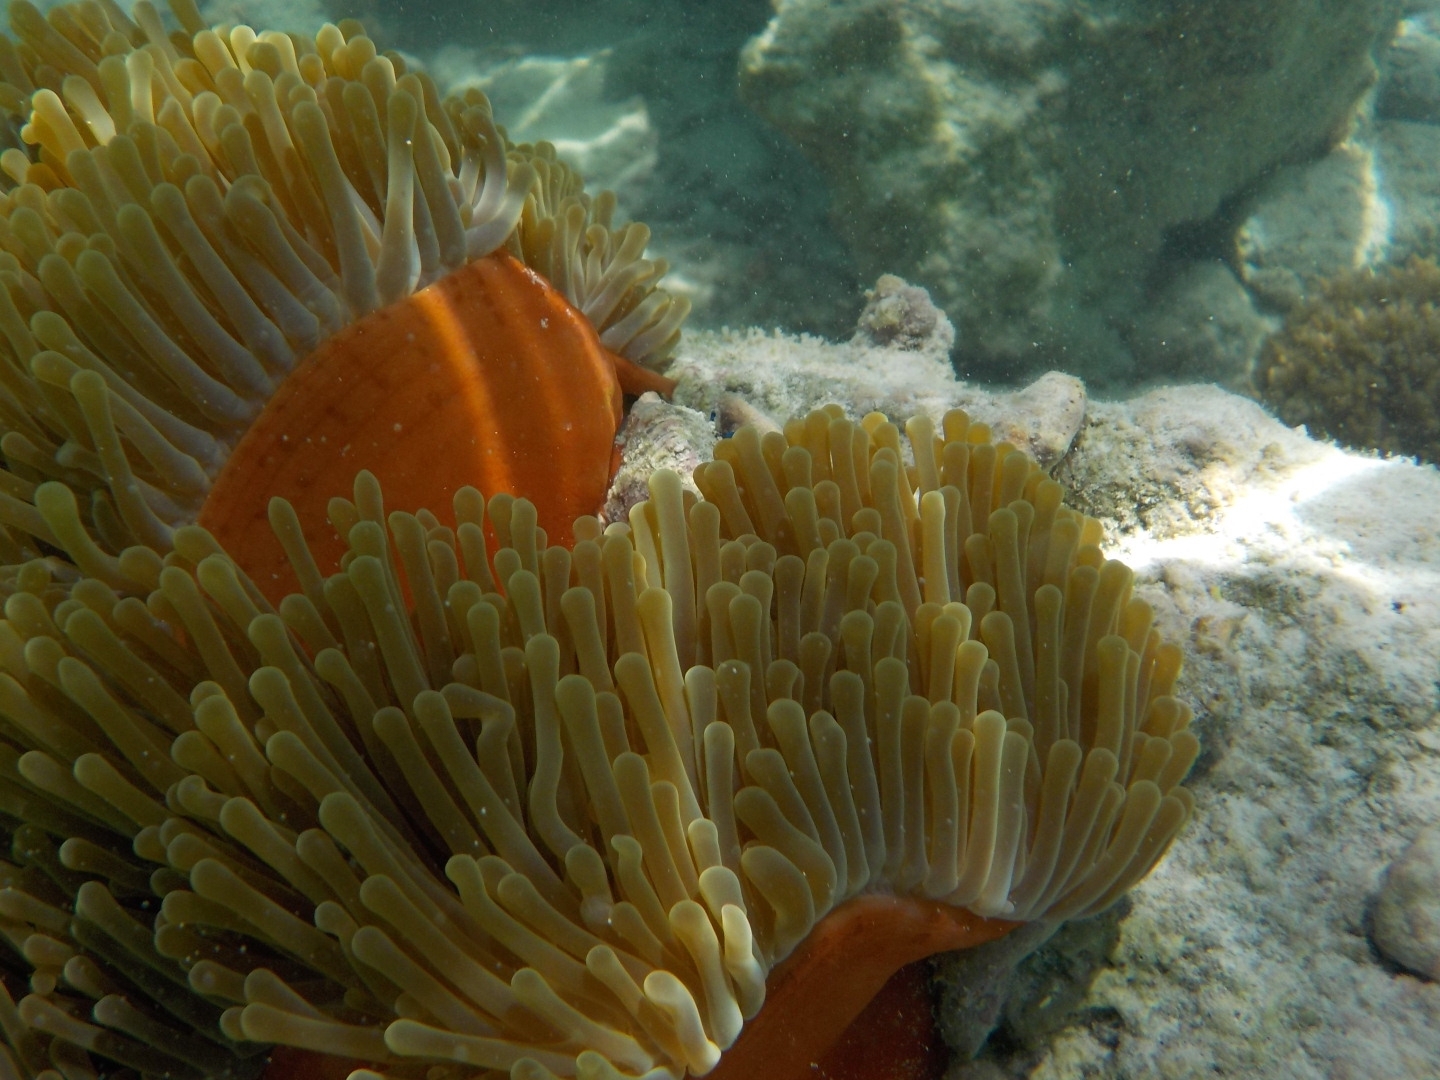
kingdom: Animalia
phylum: Cnidaria
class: Anthozoa
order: Actiniaria
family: Stichodactylidae
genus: Radianthus
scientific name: Radianthus magnifica
